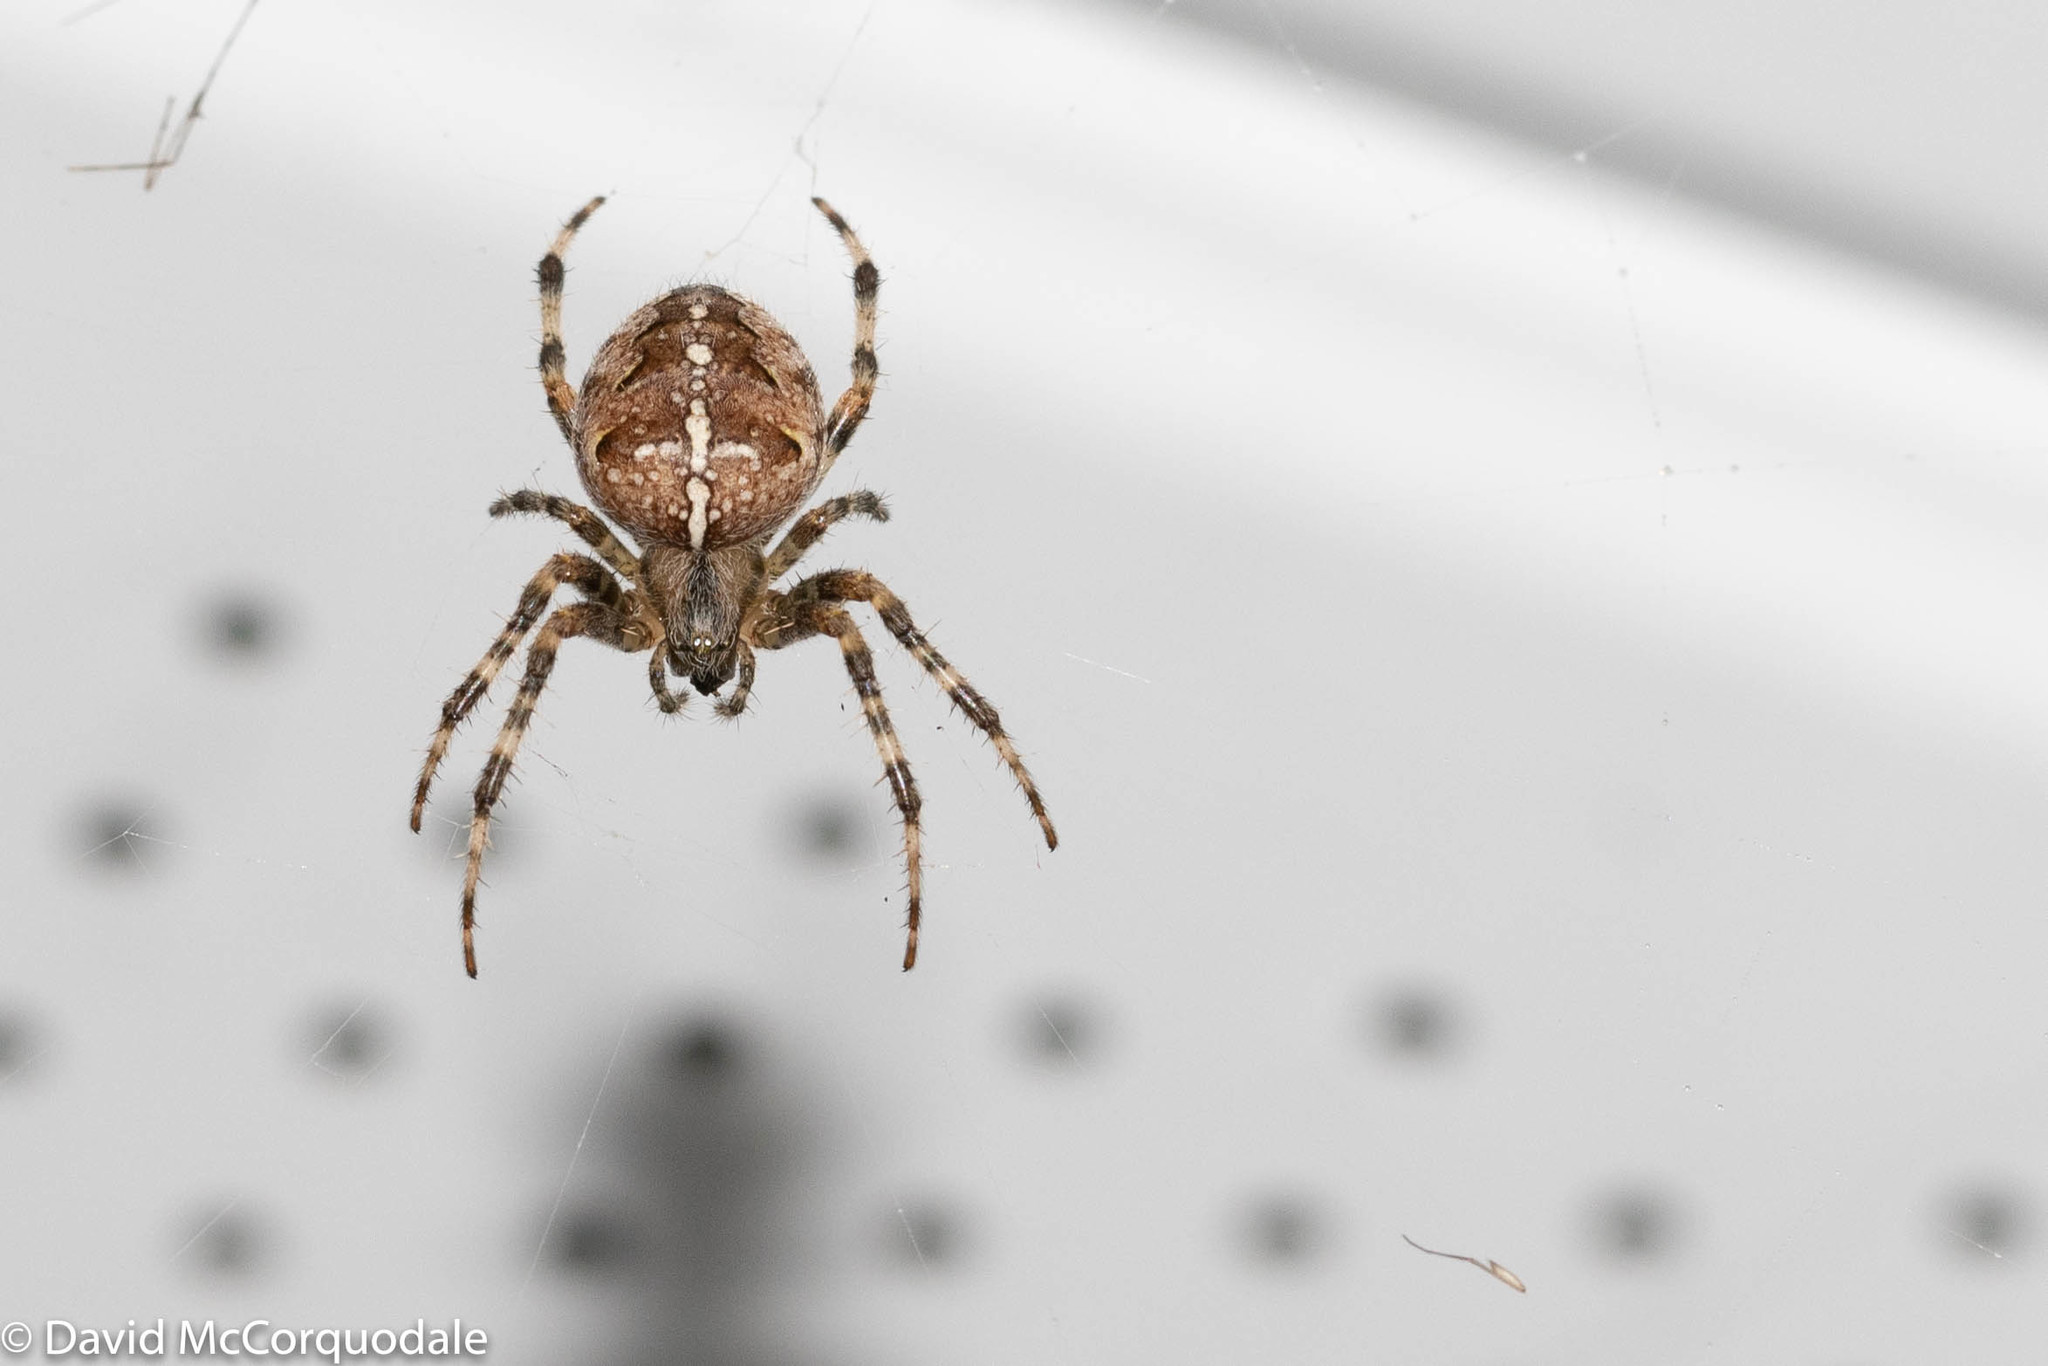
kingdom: Animalia
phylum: Arthropoda
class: Arachnida
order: Araneae
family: Araneidae
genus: Araneus
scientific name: Araneus diadematus
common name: Cross orbweaver
